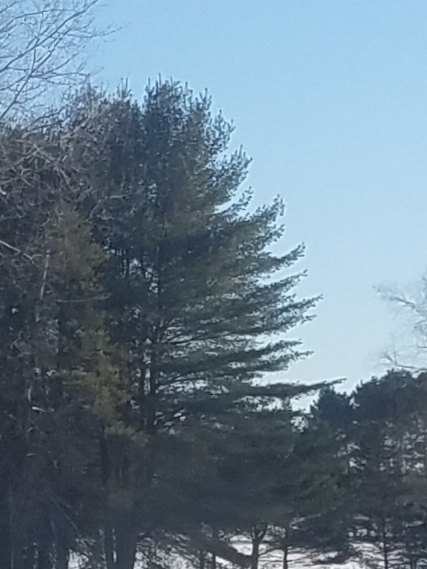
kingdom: Plantae
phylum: Tracheophyta
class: Pinopsida
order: Pinales
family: Pinaceae
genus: Pinus
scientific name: Pinus strobus
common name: Weymouth pine
